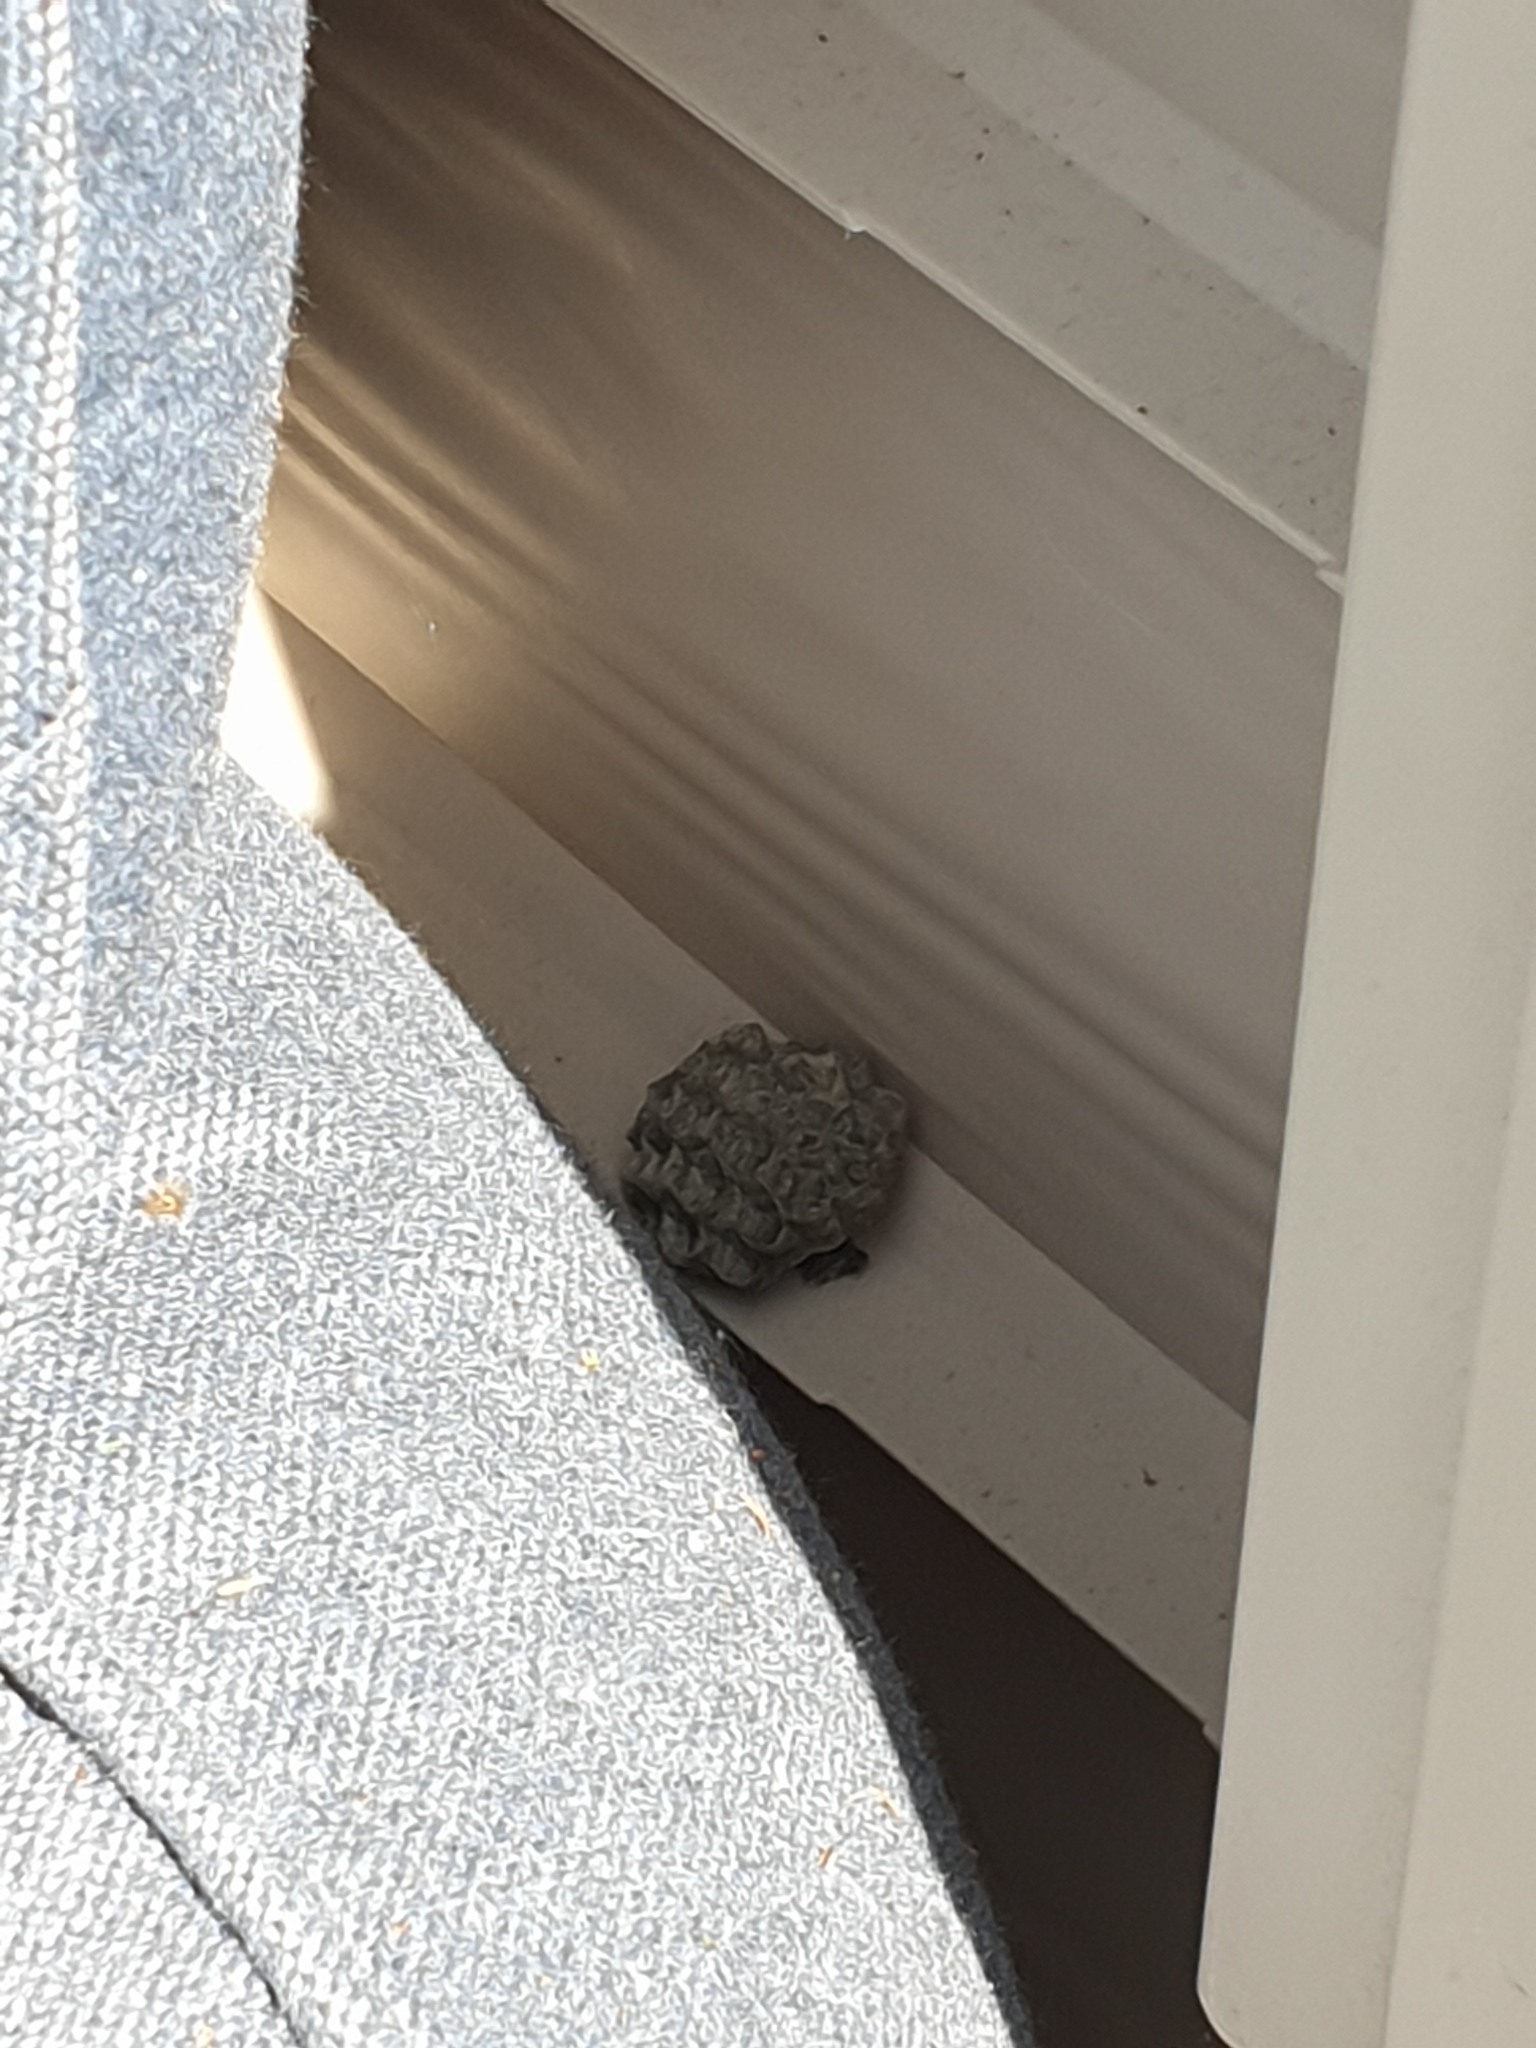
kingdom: Animalia
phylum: Arthropoda
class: Insecta
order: Hymenoptera
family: Eumenidae
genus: Polistes
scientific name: Polistes
